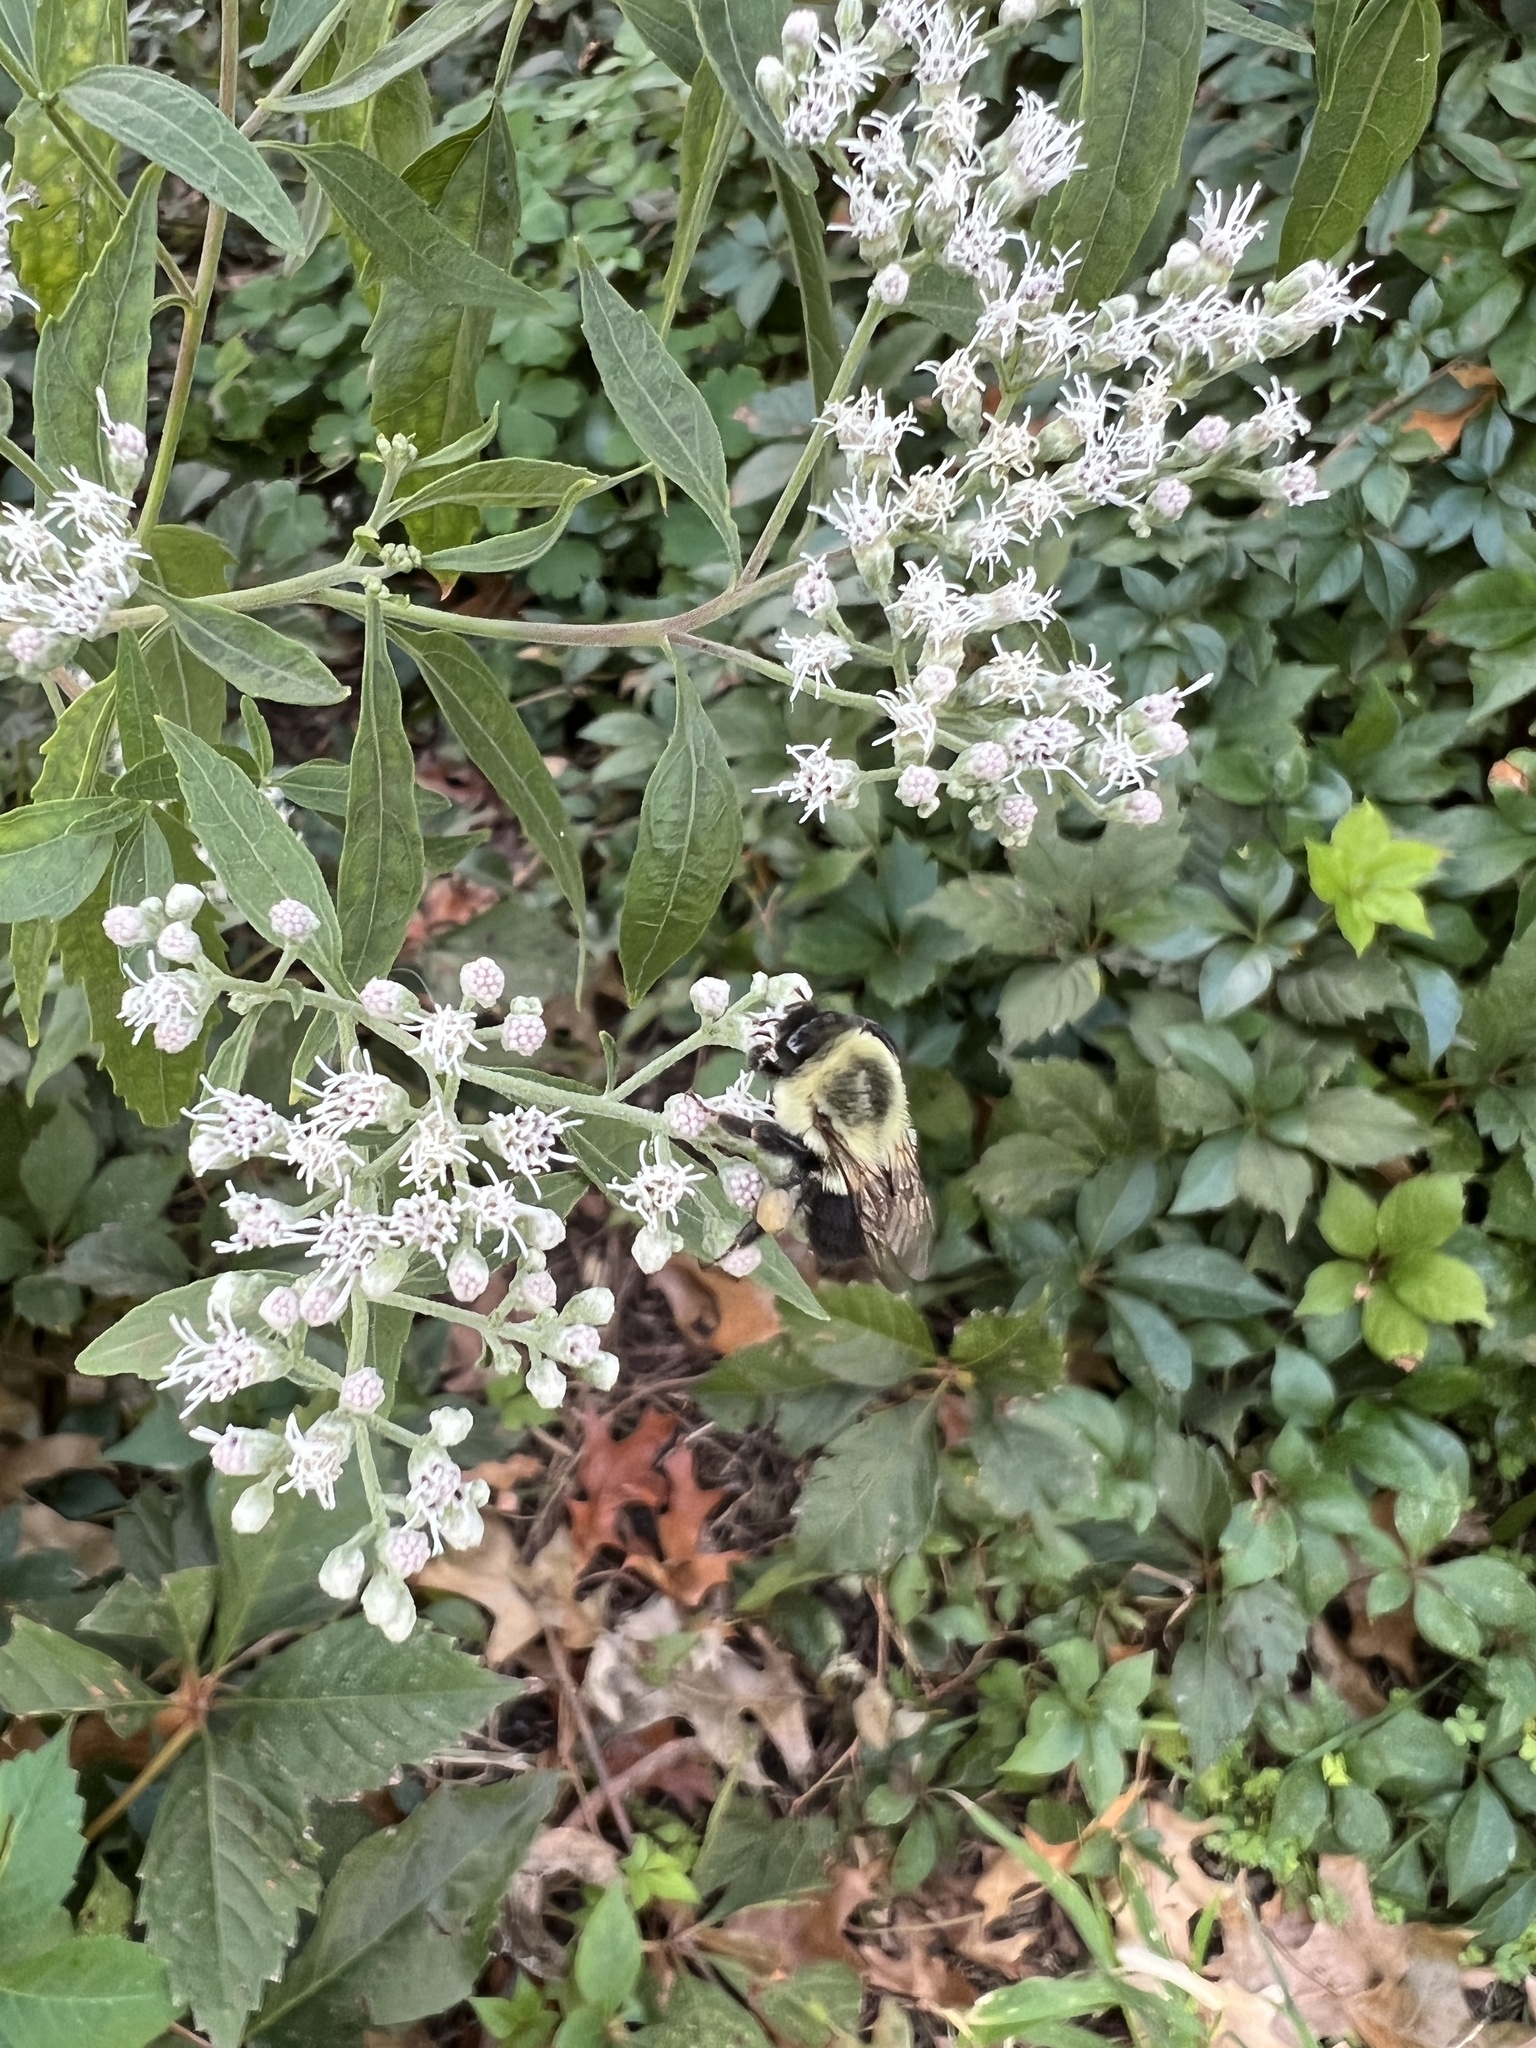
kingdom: Animalia
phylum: Arthropoda
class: Insecta
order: Hymenoptera
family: Apidae
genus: Bombus
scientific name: Bombus impatiens
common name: Common eastern bumble bee
